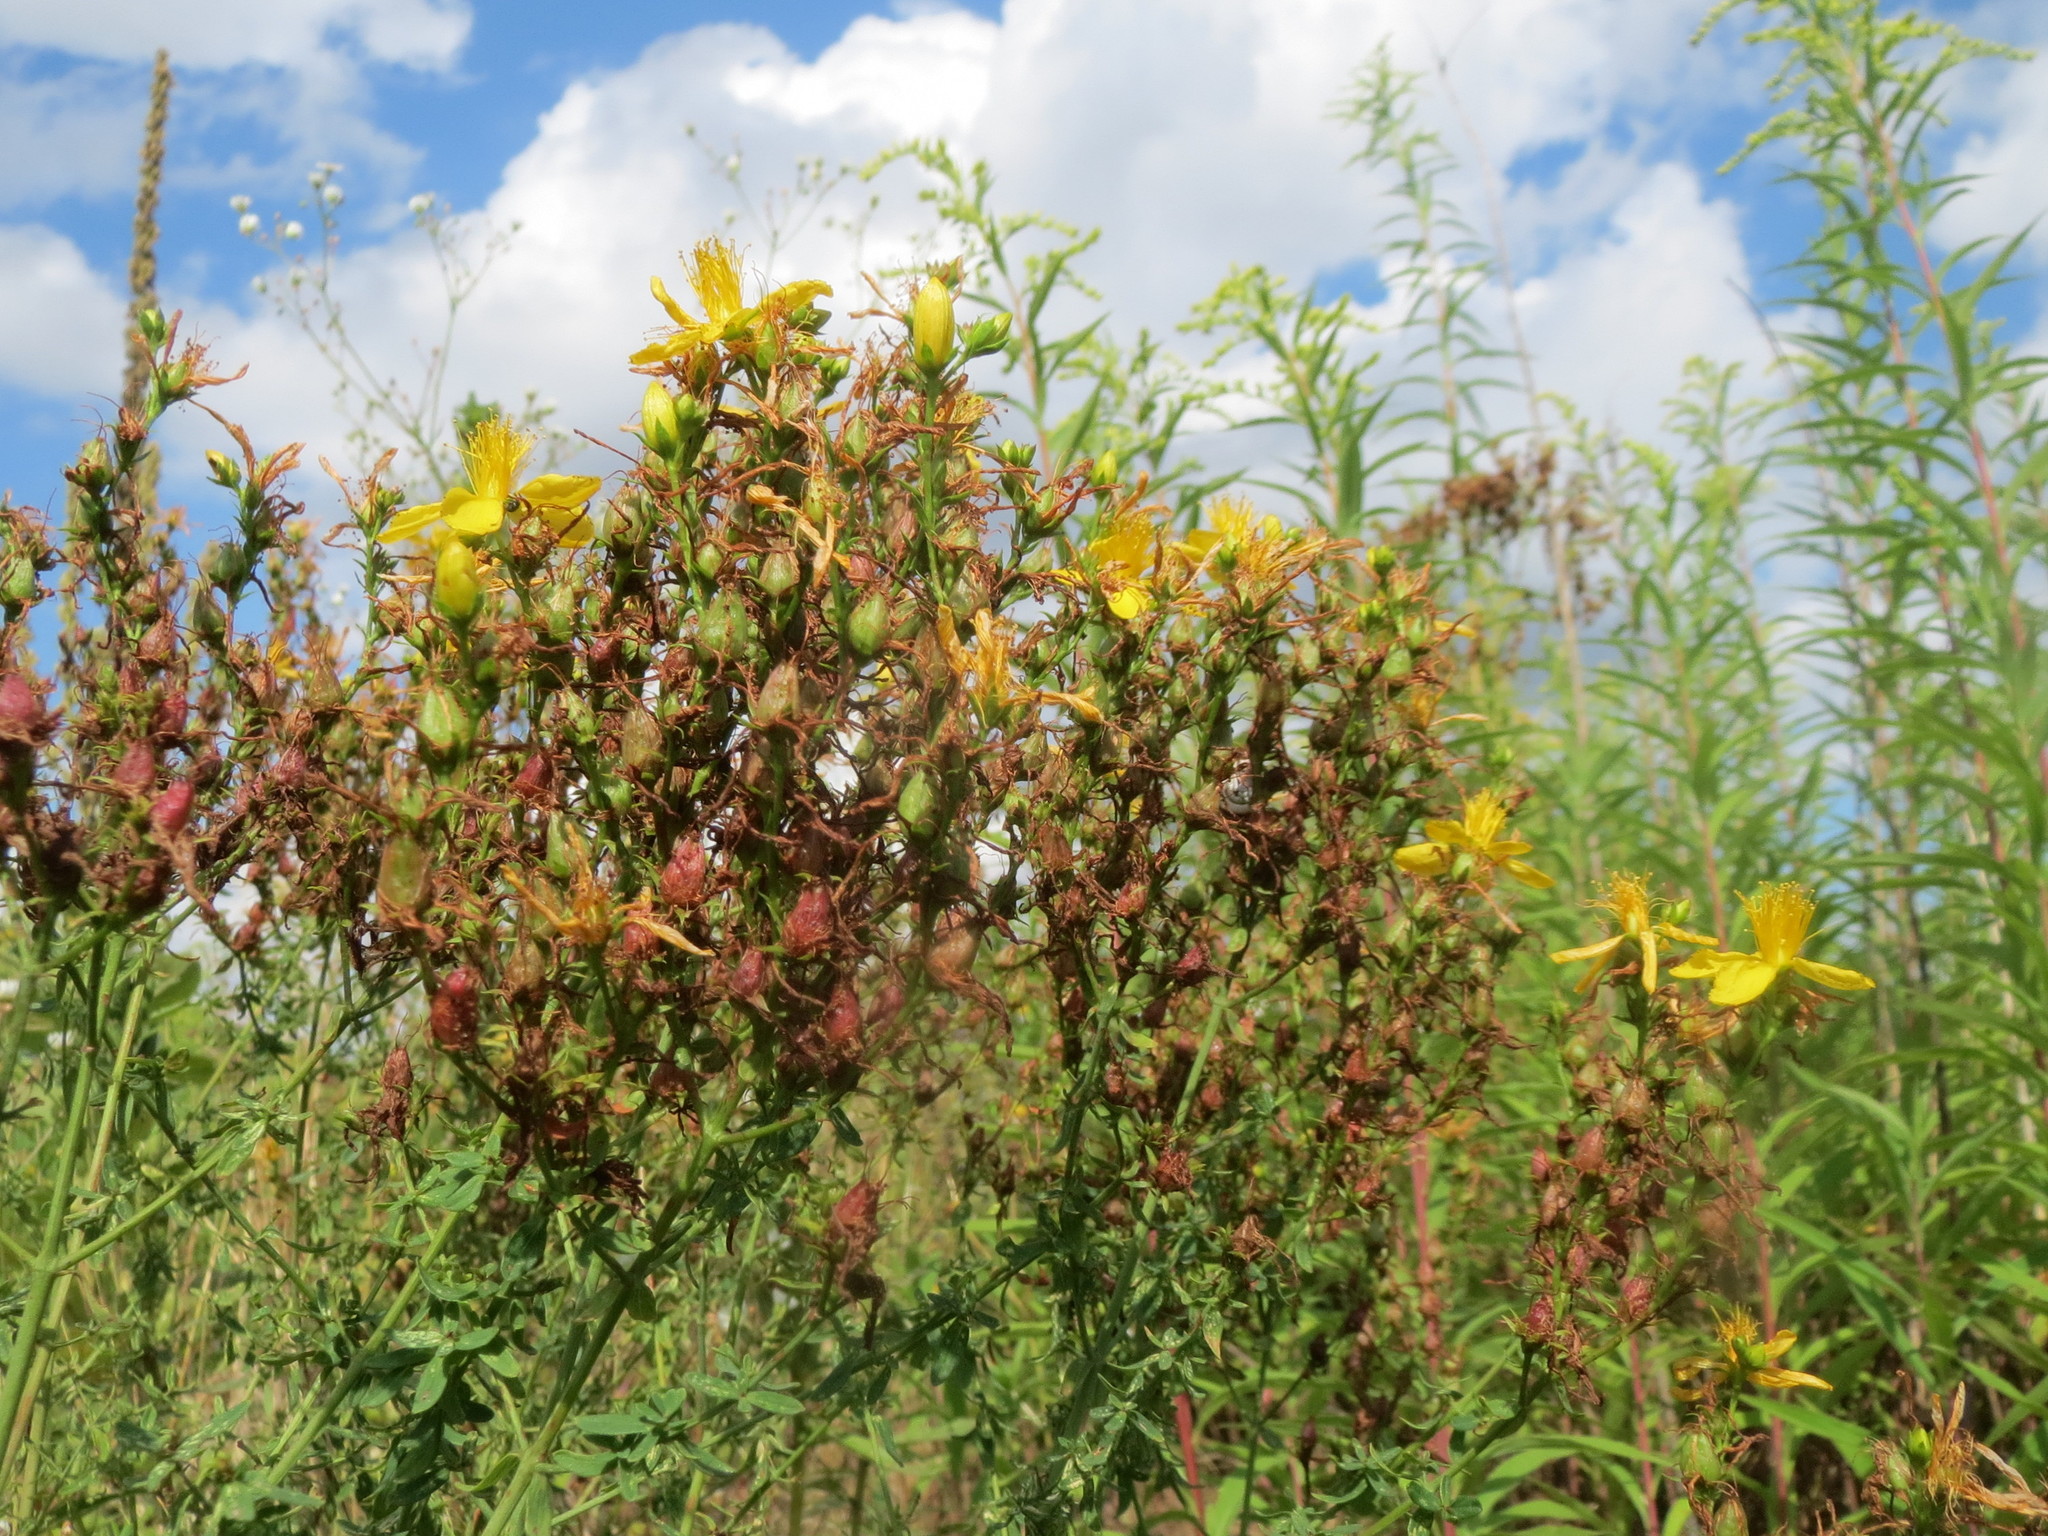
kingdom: Plantae
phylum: Tracheophyta
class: Magnoliopsida
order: Malpighiales
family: Hypericaceae
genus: Hypericum
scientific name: Hypericum perforatum
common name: Common st. johnswort
